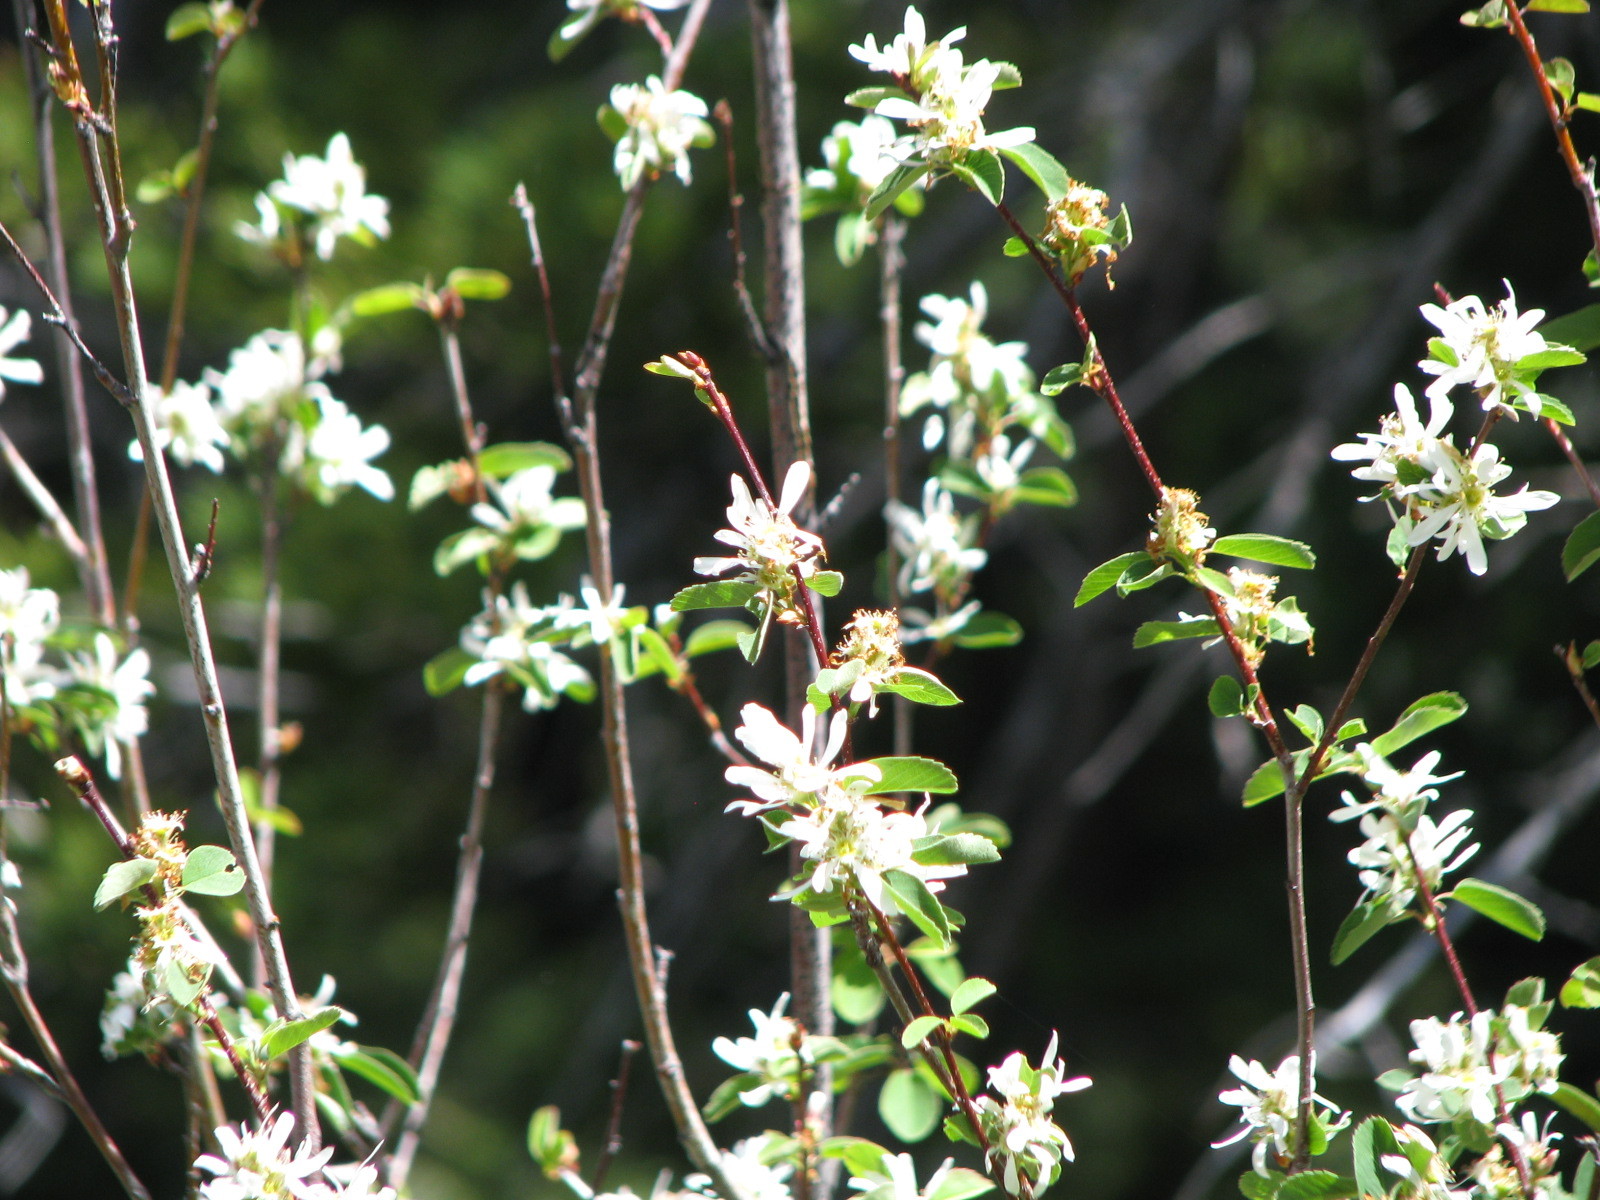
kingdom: Plantae
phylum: Tracheophyta
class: Magnoliopsida
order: Rosales
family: Rosaceae
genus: Amelanchier
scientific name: Amelanchier alnifolia
